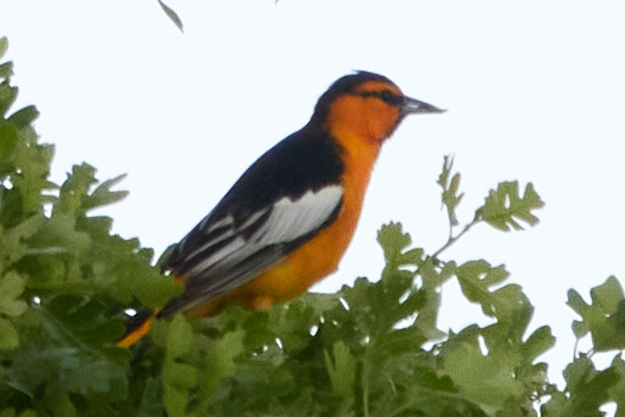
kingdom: Animalia
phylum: Chordata
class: Aves
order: Passeriformes
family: Icteridae
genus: Icterus
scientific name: Icterus bullockii
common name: Bullock's oriole
